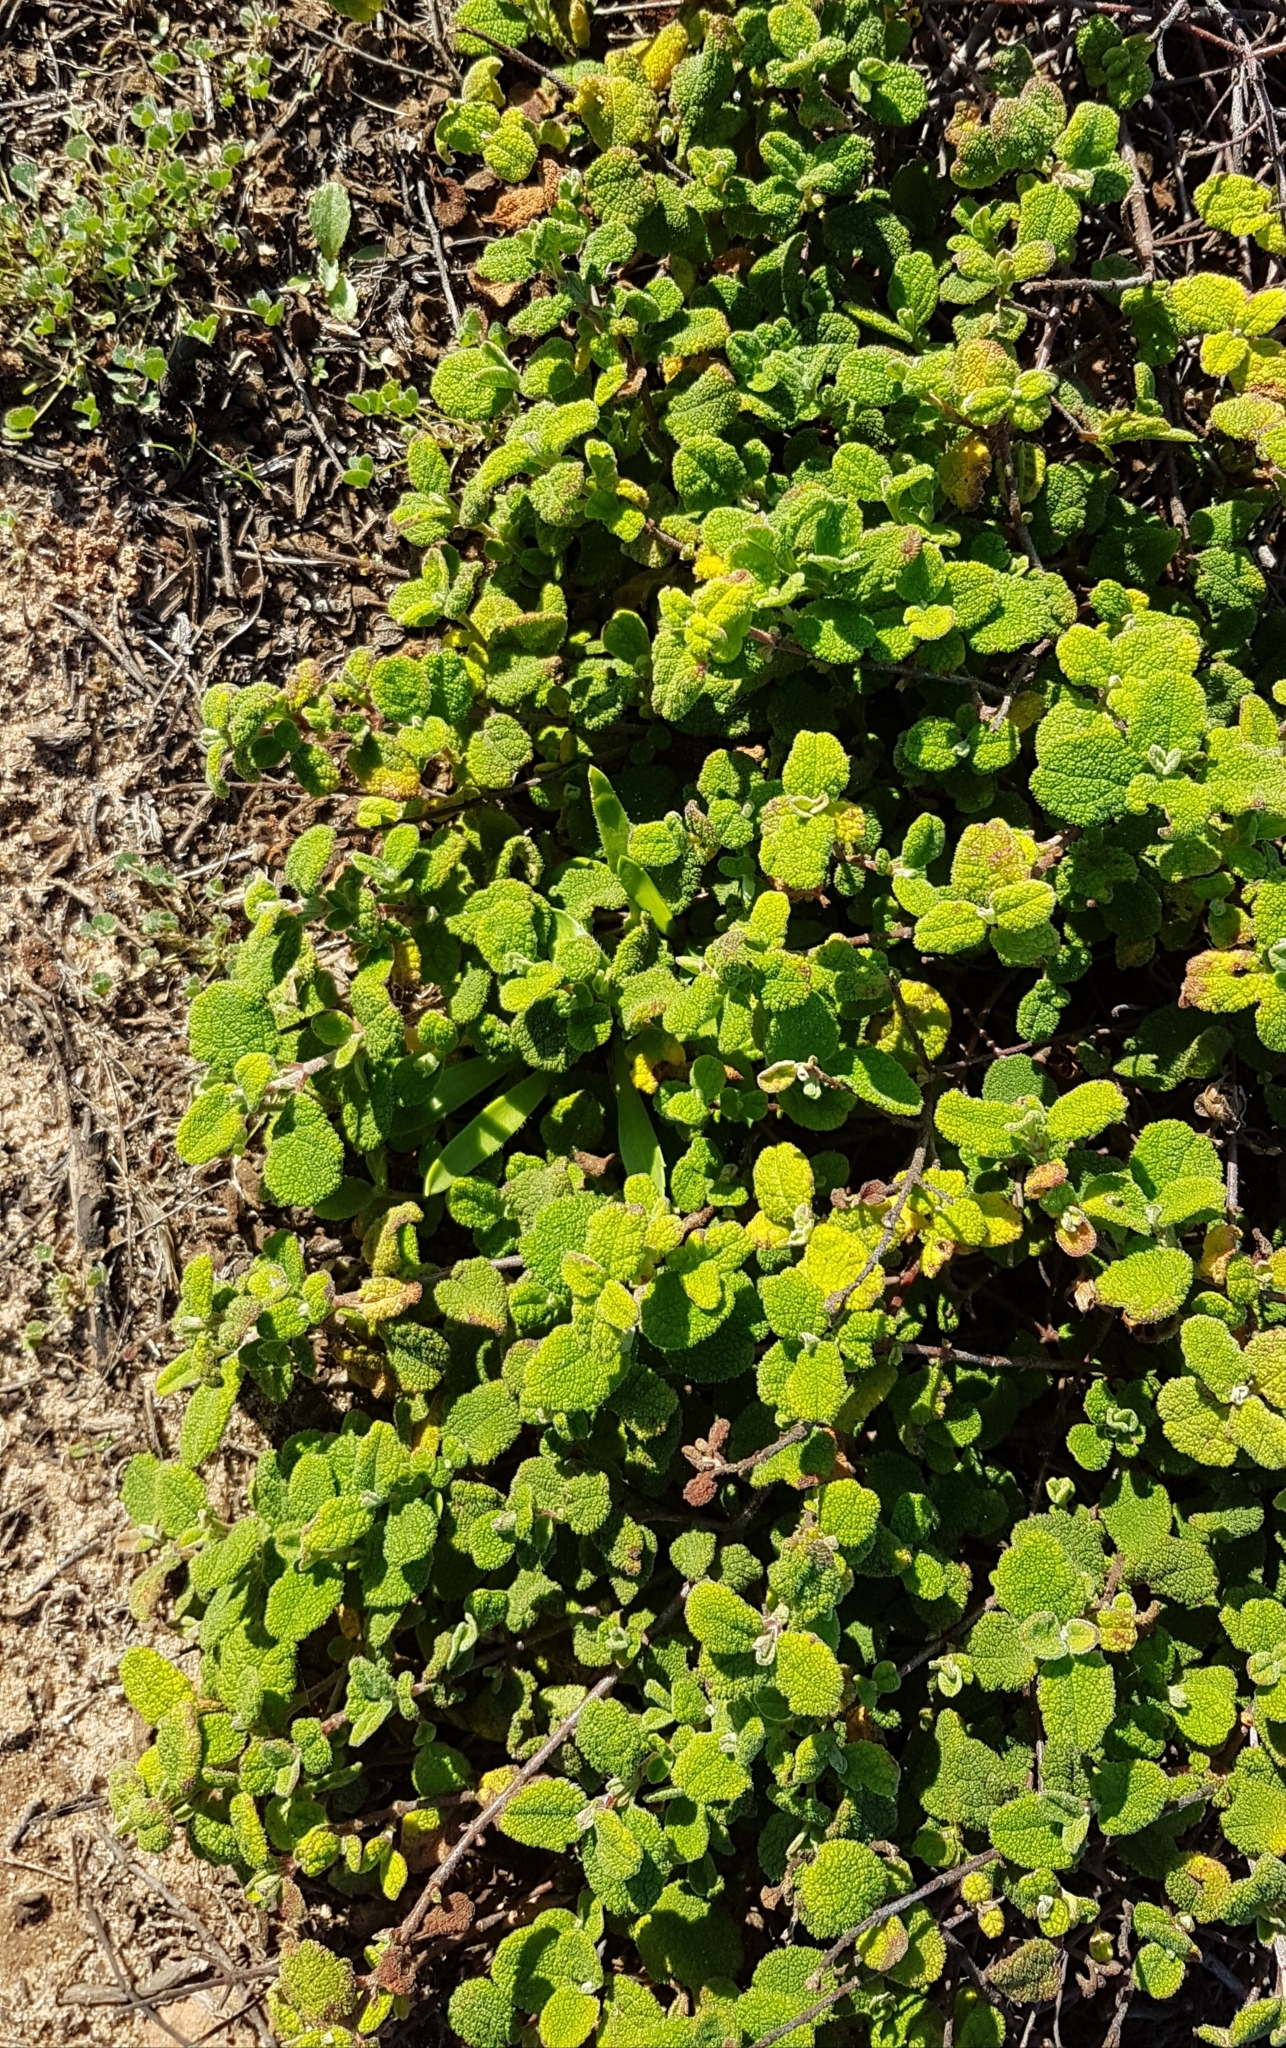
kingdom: Plantae
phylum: Tracheophyta
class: Magnoliopsida
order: Malvales
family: Cistaceae
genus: Cistus
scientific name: Cistus salviifolius
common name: Salvia cistus
